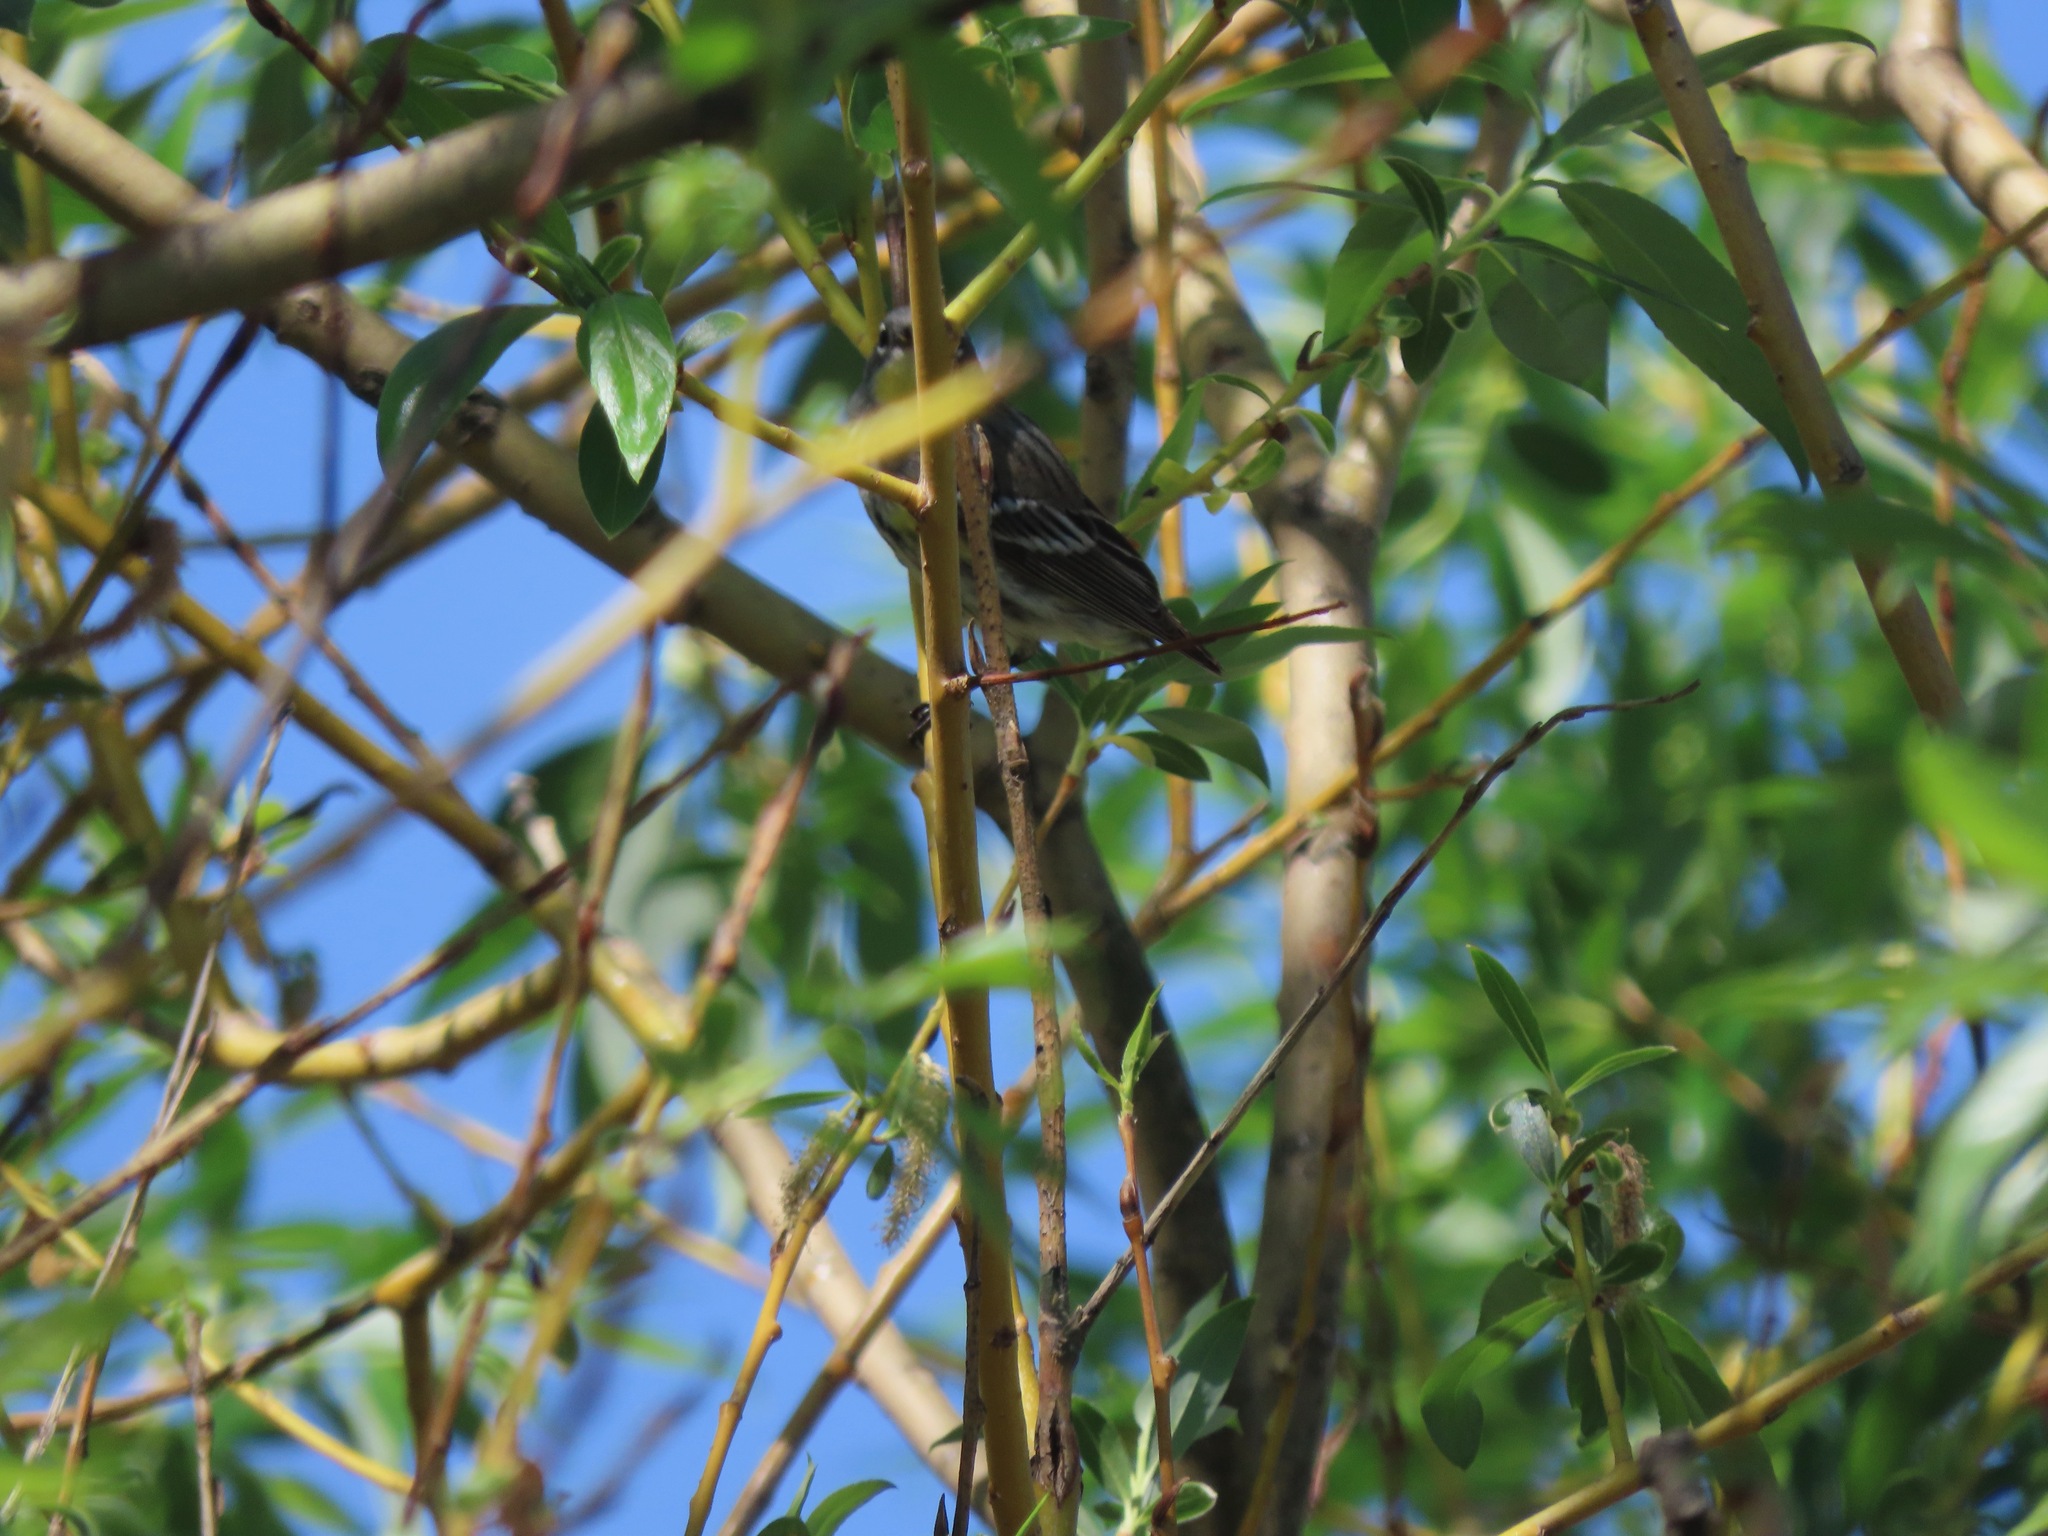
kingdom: Animalia
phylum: Chordata
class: Aves
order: Passeriformes
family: Parulidae
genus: Setophaga
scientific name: Setophaga coronata
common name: Myrtle warbler
